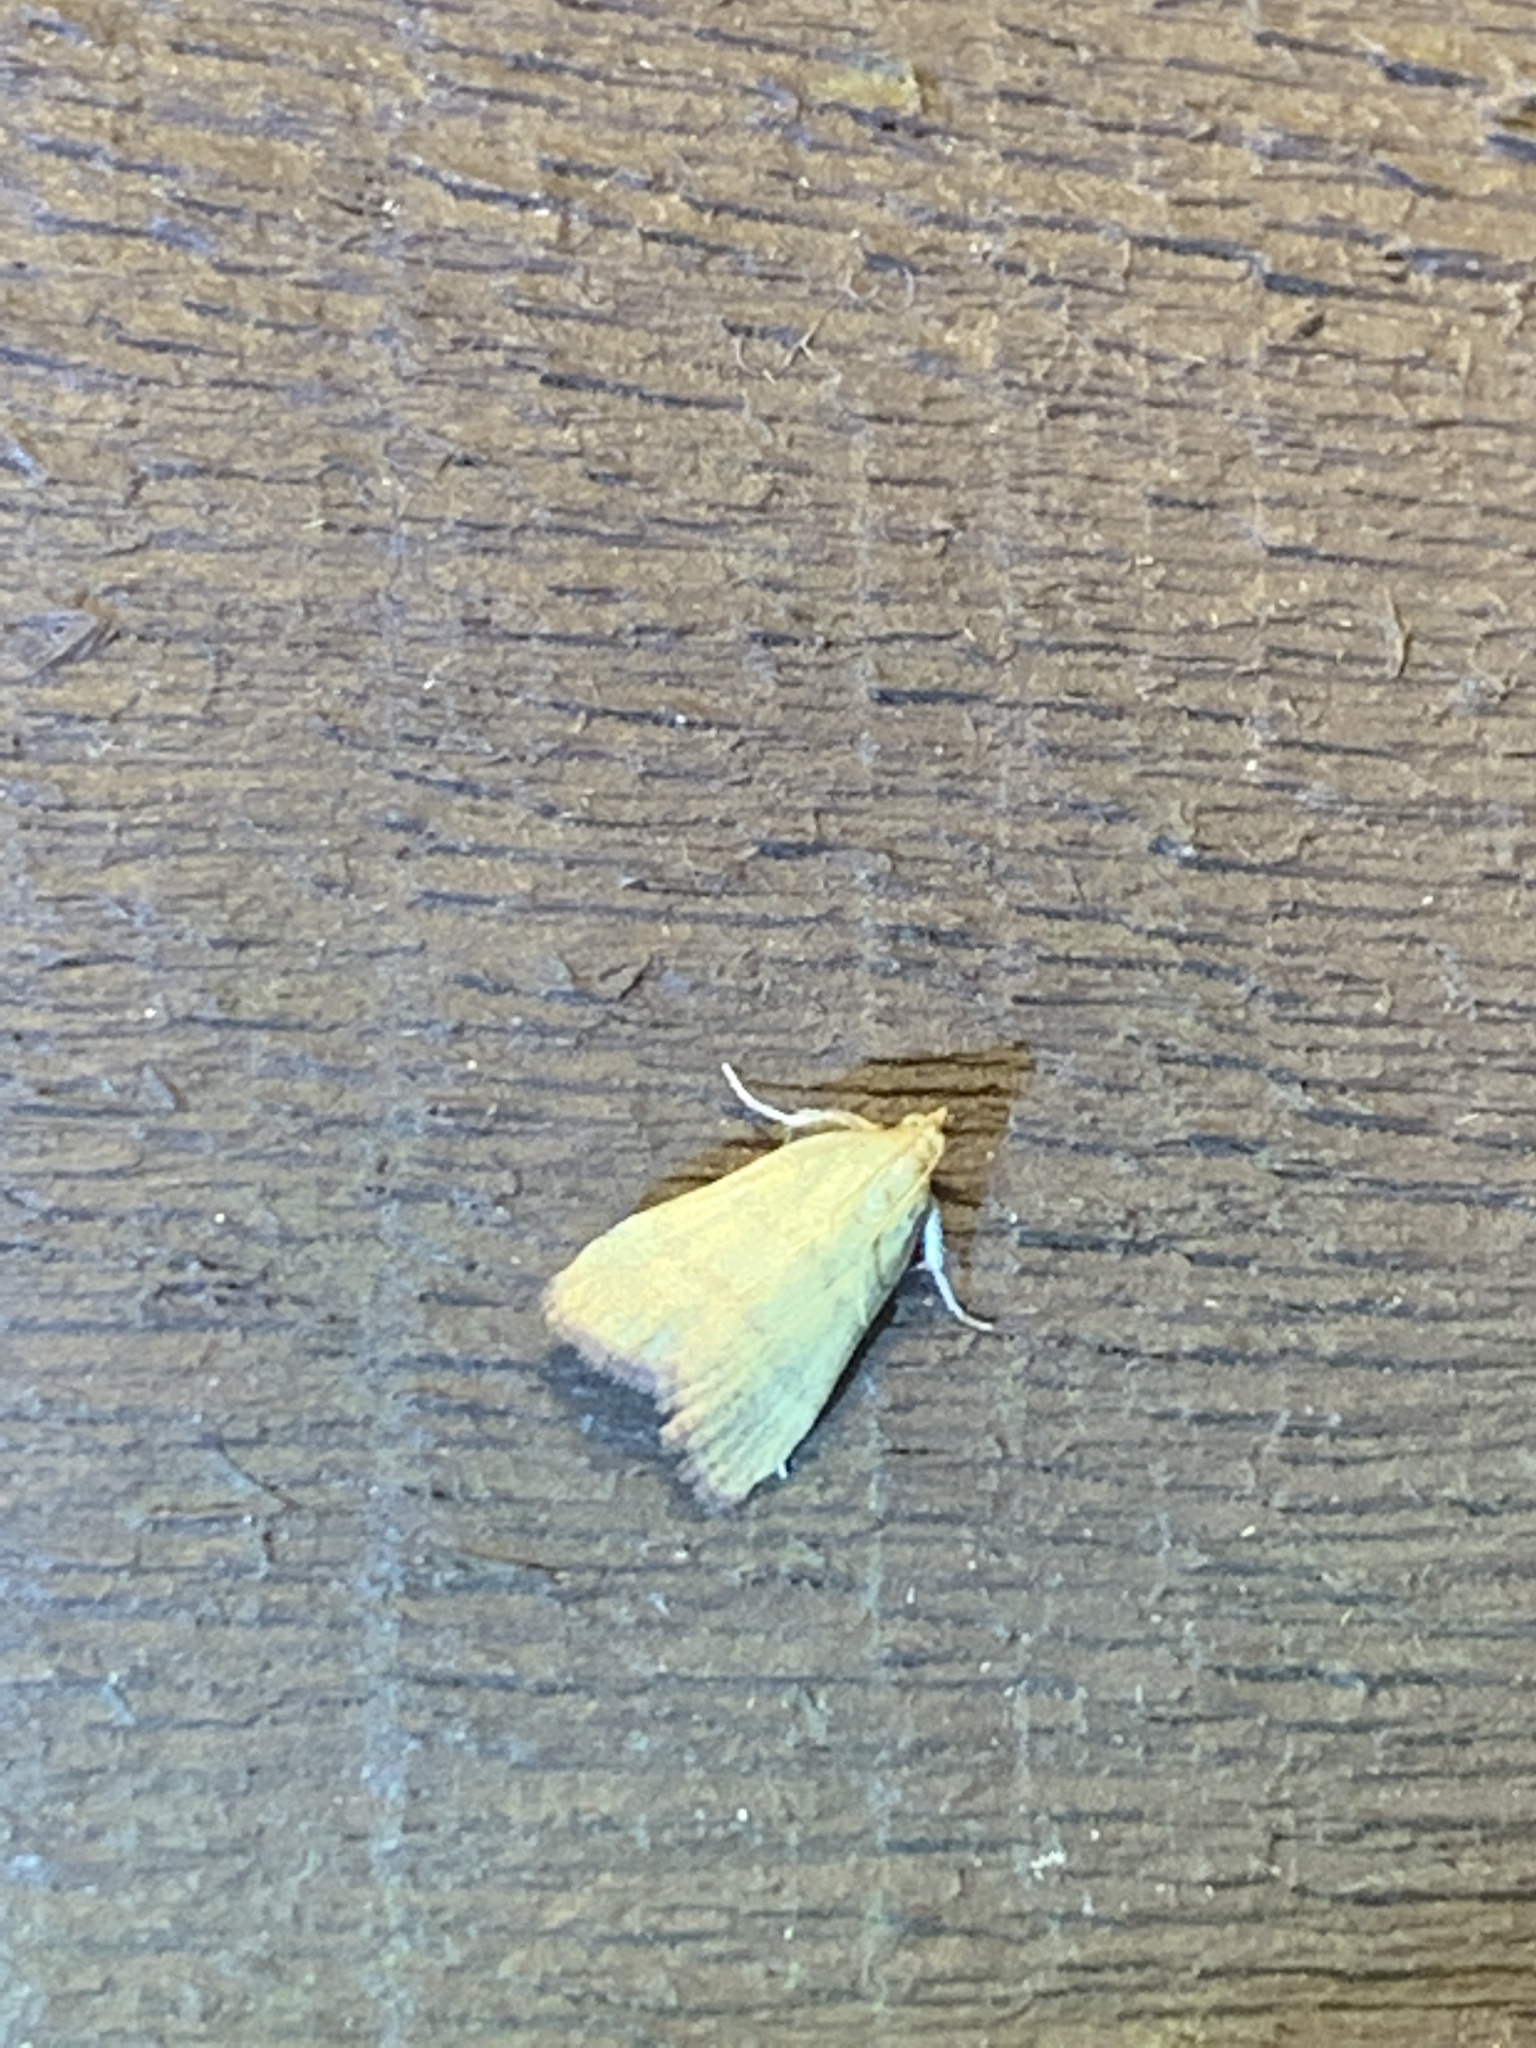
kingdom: Animalia
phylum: Arthropoda
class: Insecta
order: Lepidoptera
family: Pyralidae
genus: Condylolomia
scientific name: Condylolomia participialis
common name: Drab condylolomia moth
